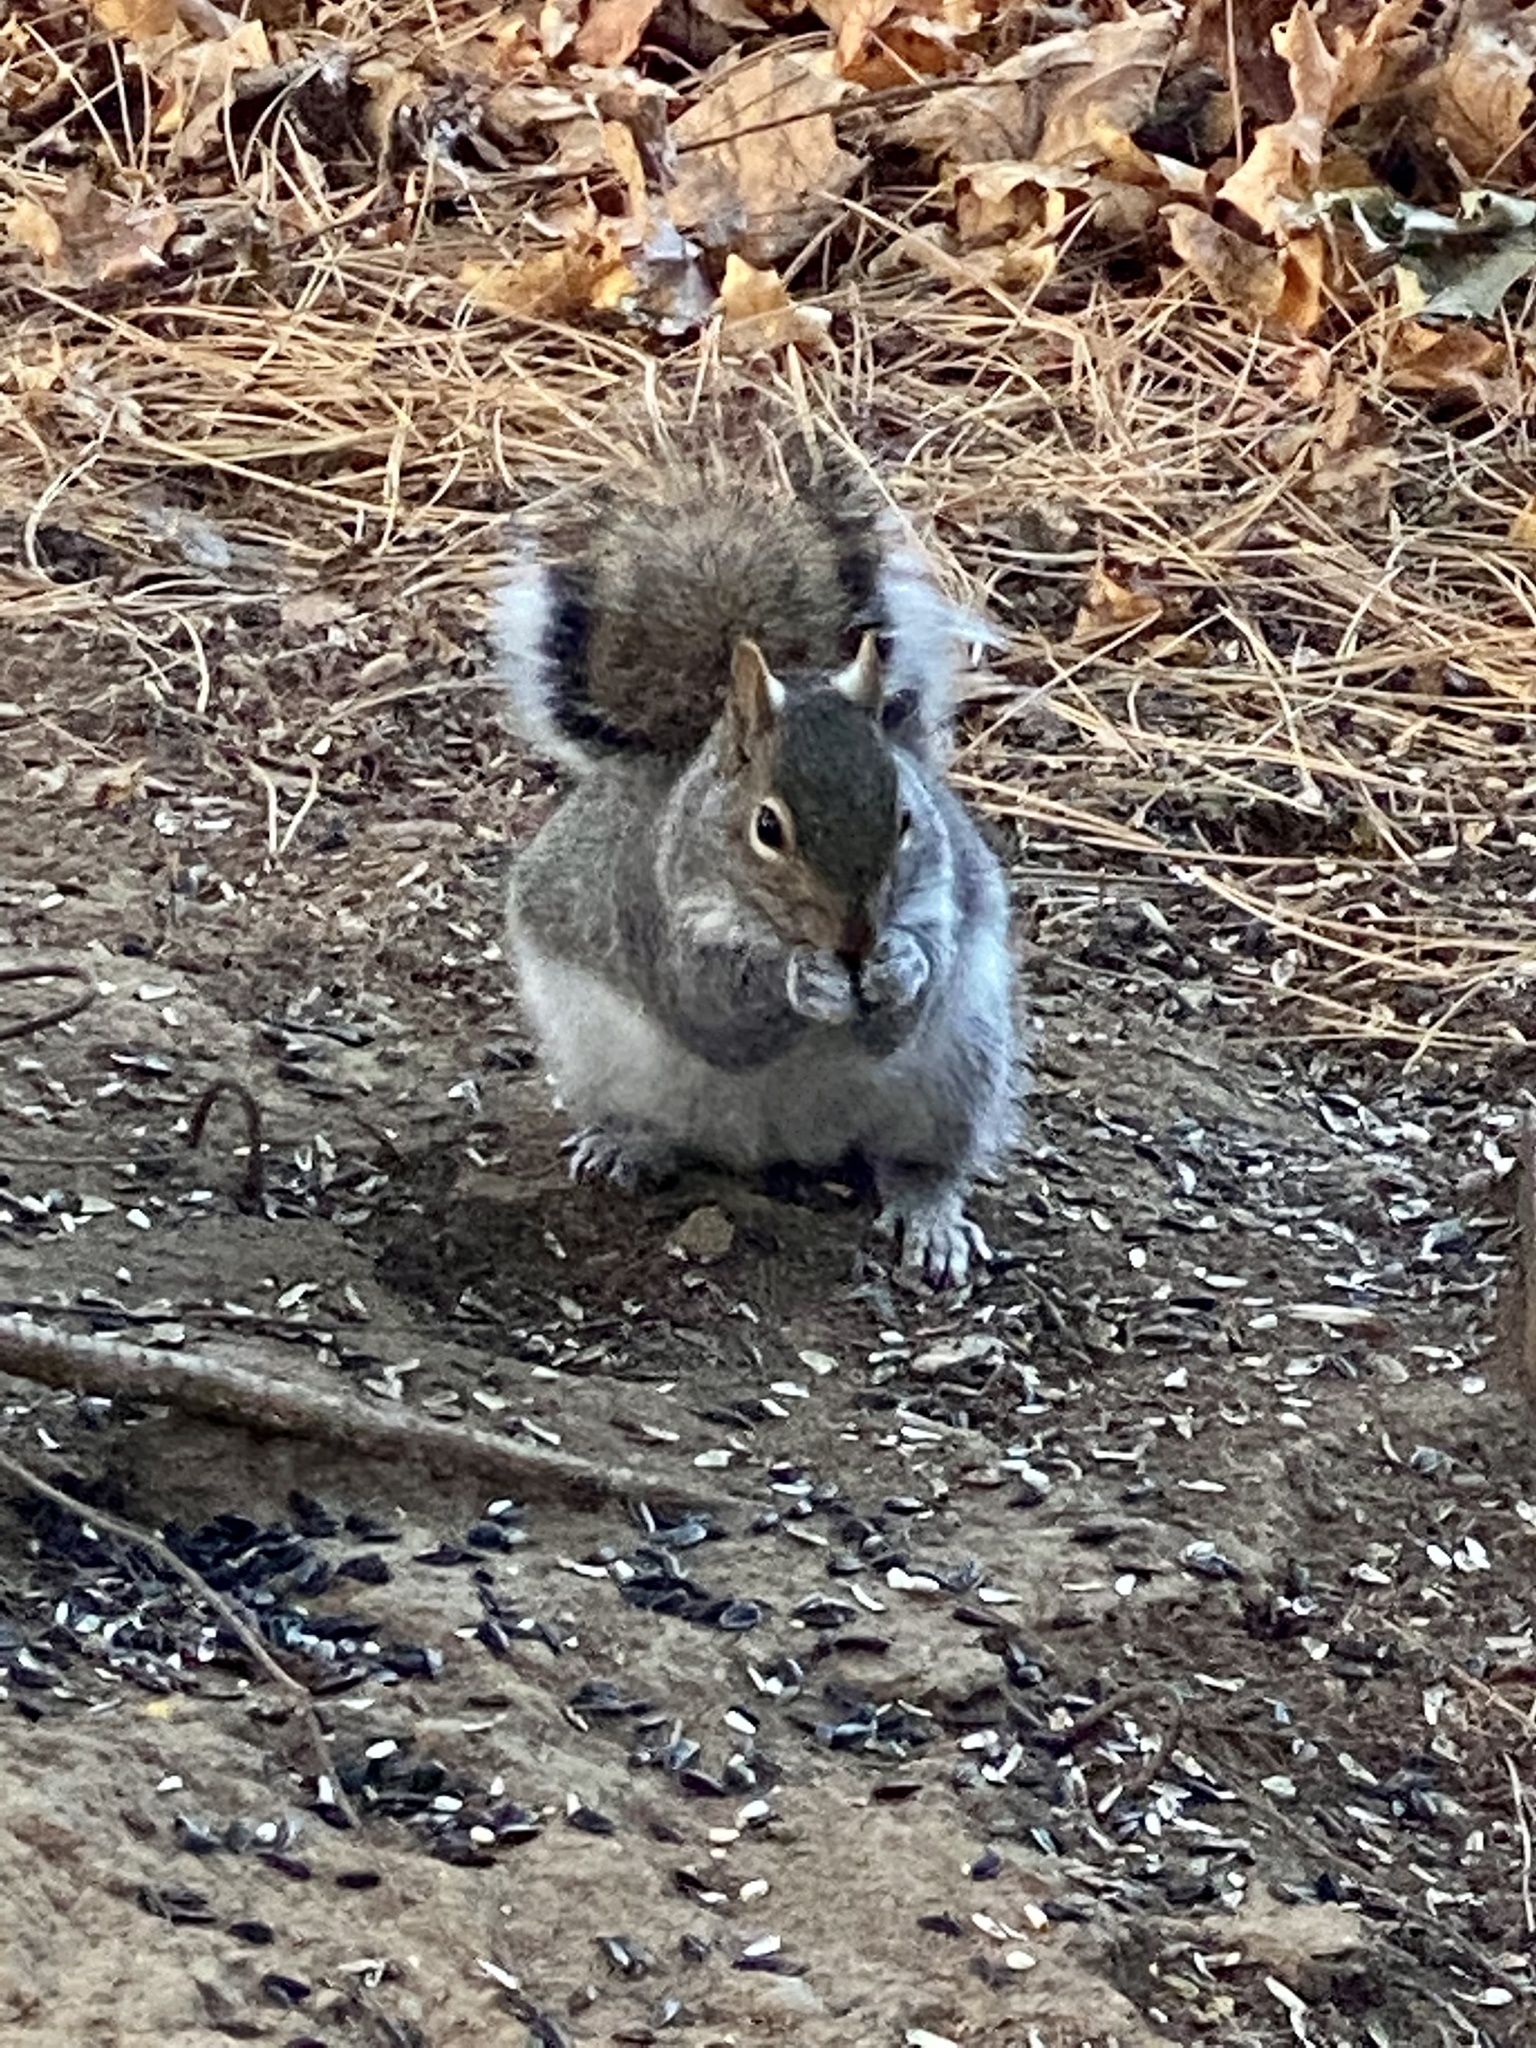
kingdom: Animalia
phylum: Chordata
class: Mammalia
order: Rodentia
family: Sciuridae
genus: Sciurus
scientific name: Sciurus carolinensis
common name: Eastern gray squirrel
